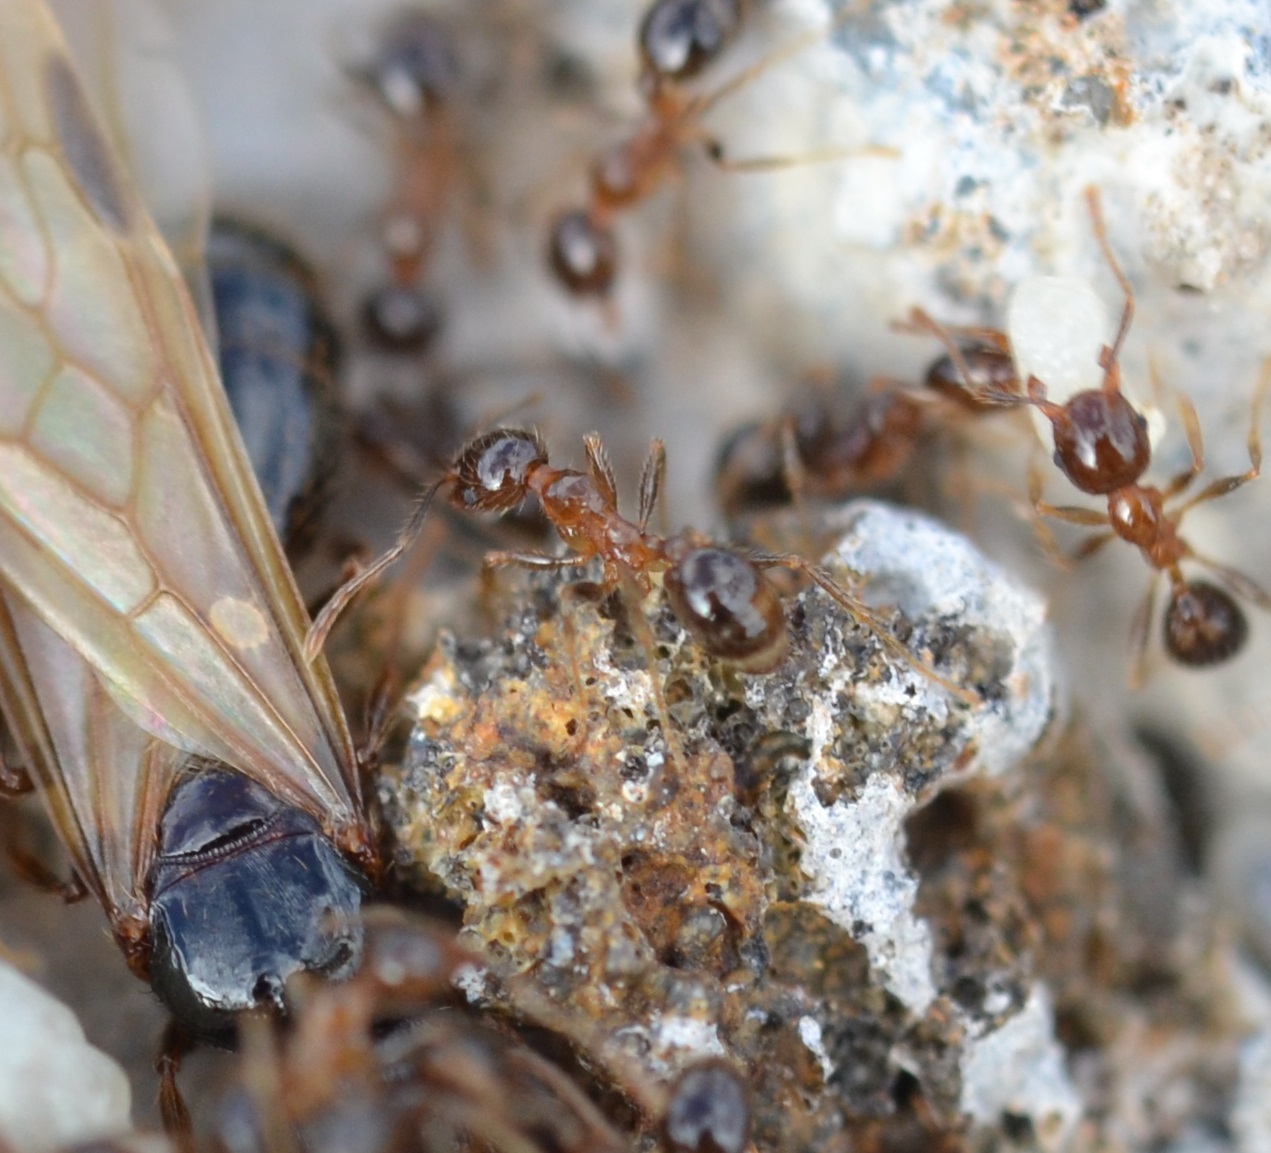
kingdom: Animalia
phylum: Arthropoda
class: Insecta
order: Hymenoptera
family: Formicidae
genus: Pheidole
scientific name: Pheidole megacephala
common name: Bigheaded ant
